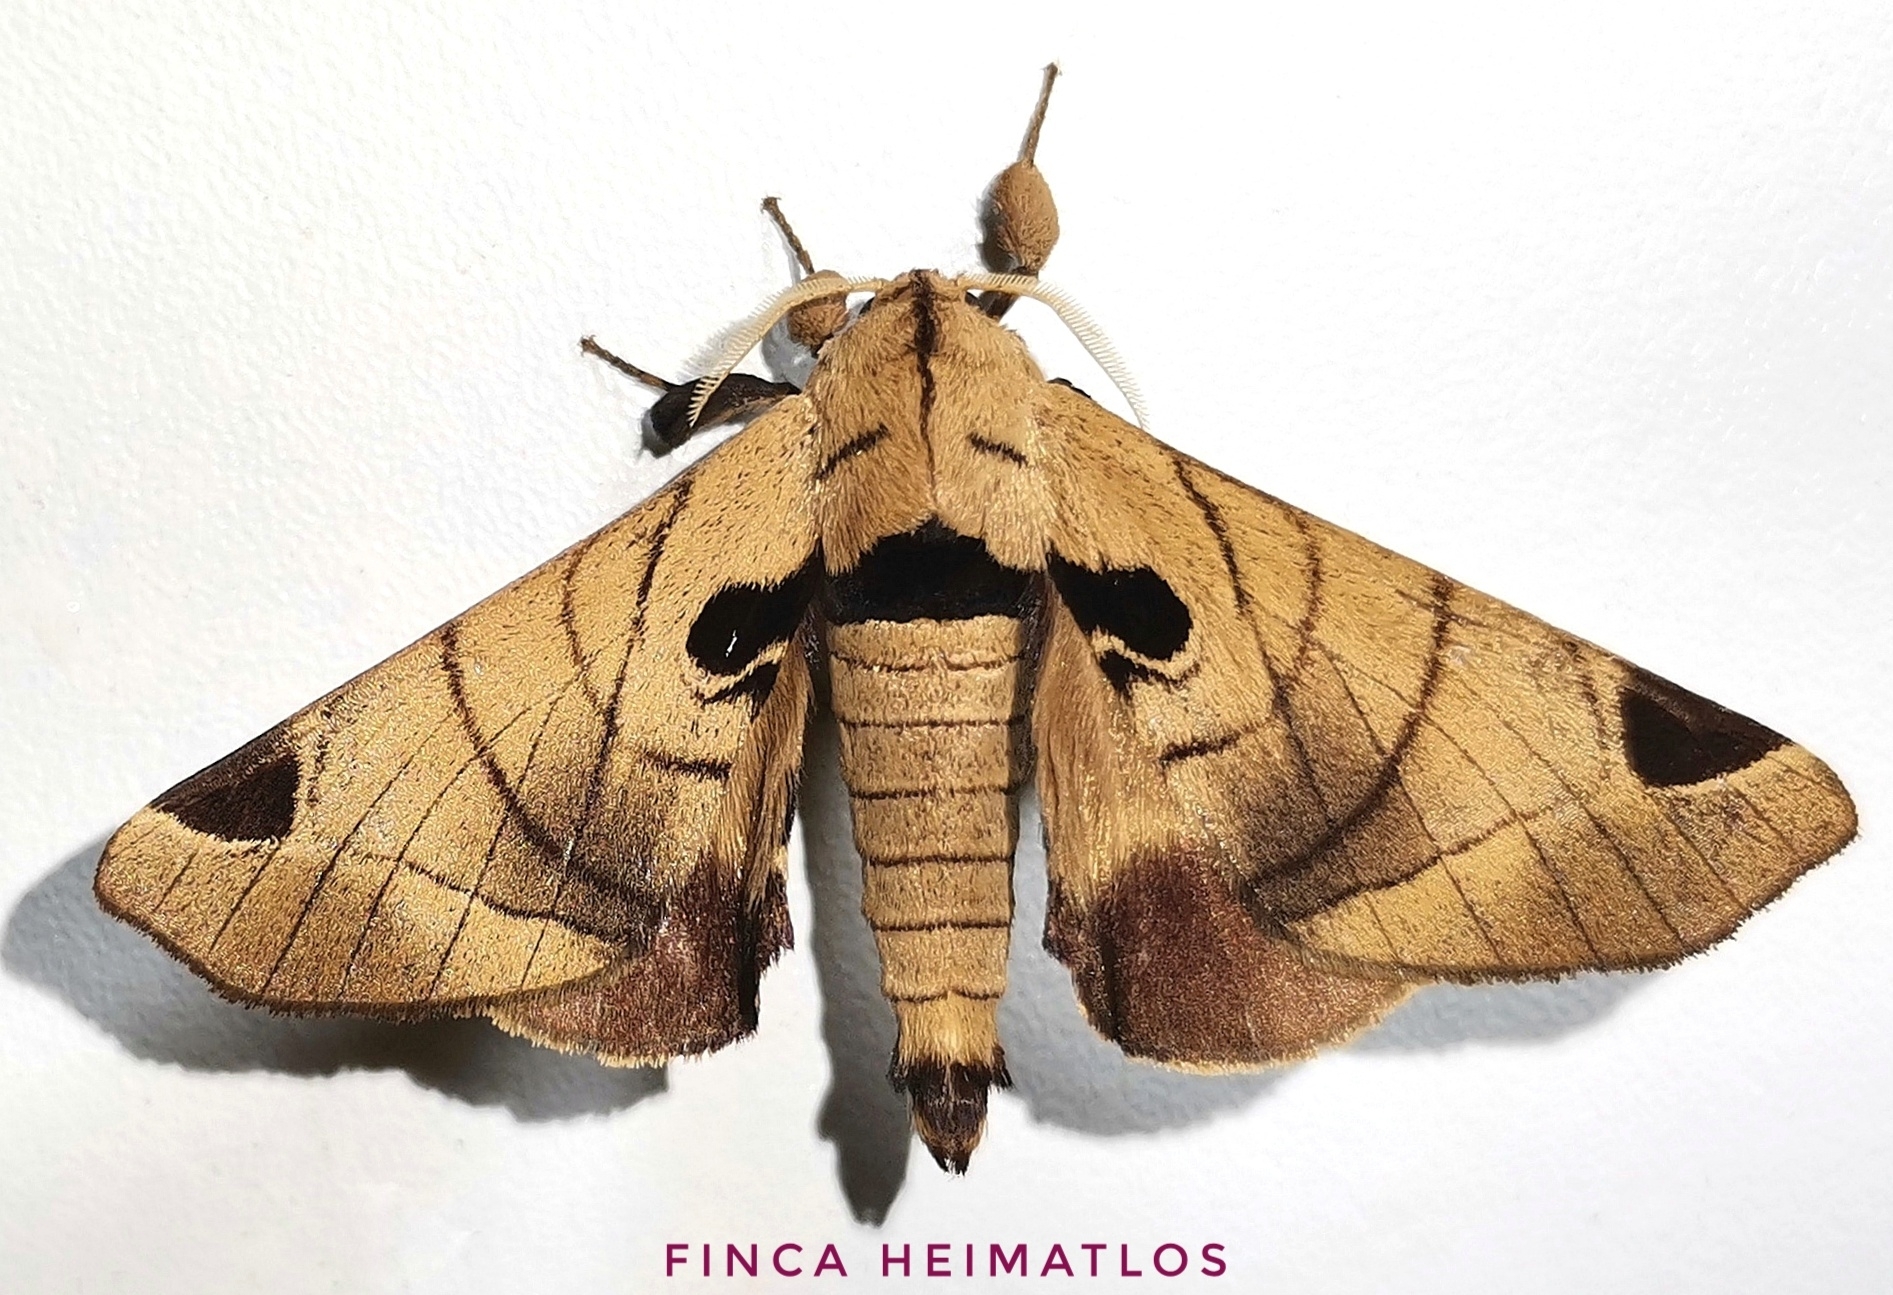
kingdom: Animalia
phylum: Arthropoda
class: Insecta
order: Lepidoptera
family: Apatelodidae
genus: Hygrochroa
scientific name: Hygrochroa Apatelodes pandarioides
